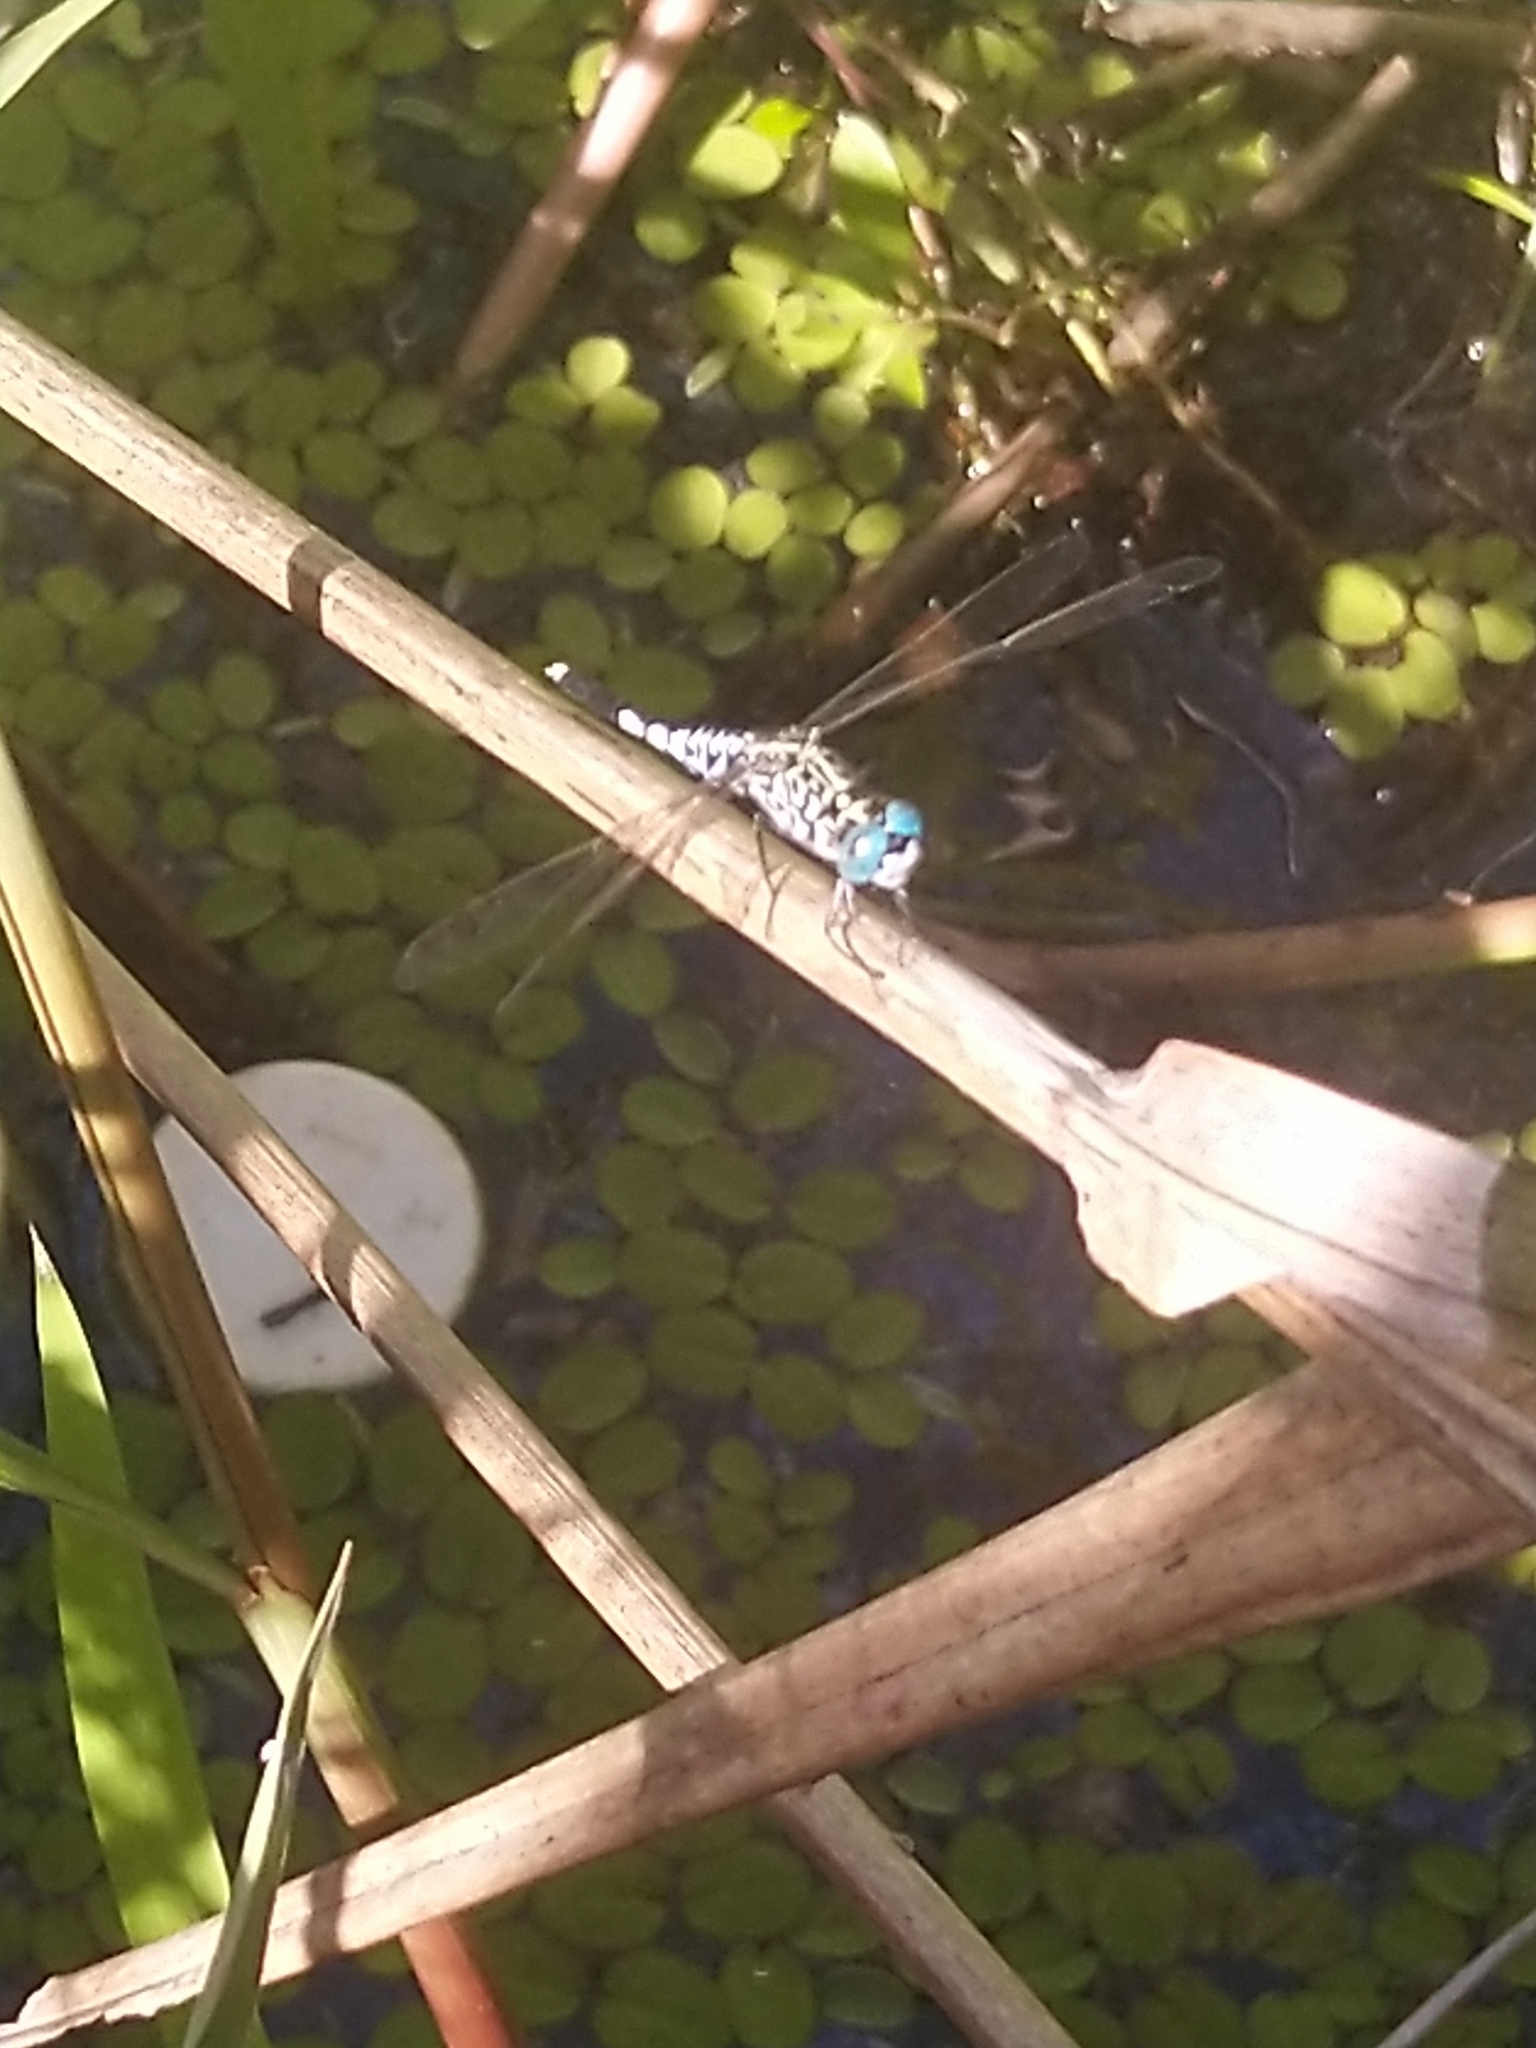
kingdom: Animalia
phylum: Arthropoda
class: Insecta
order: Odonata
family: Libellulidae
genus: Acisoma
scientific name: Acisoma panorpoides
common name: Asian pintail
